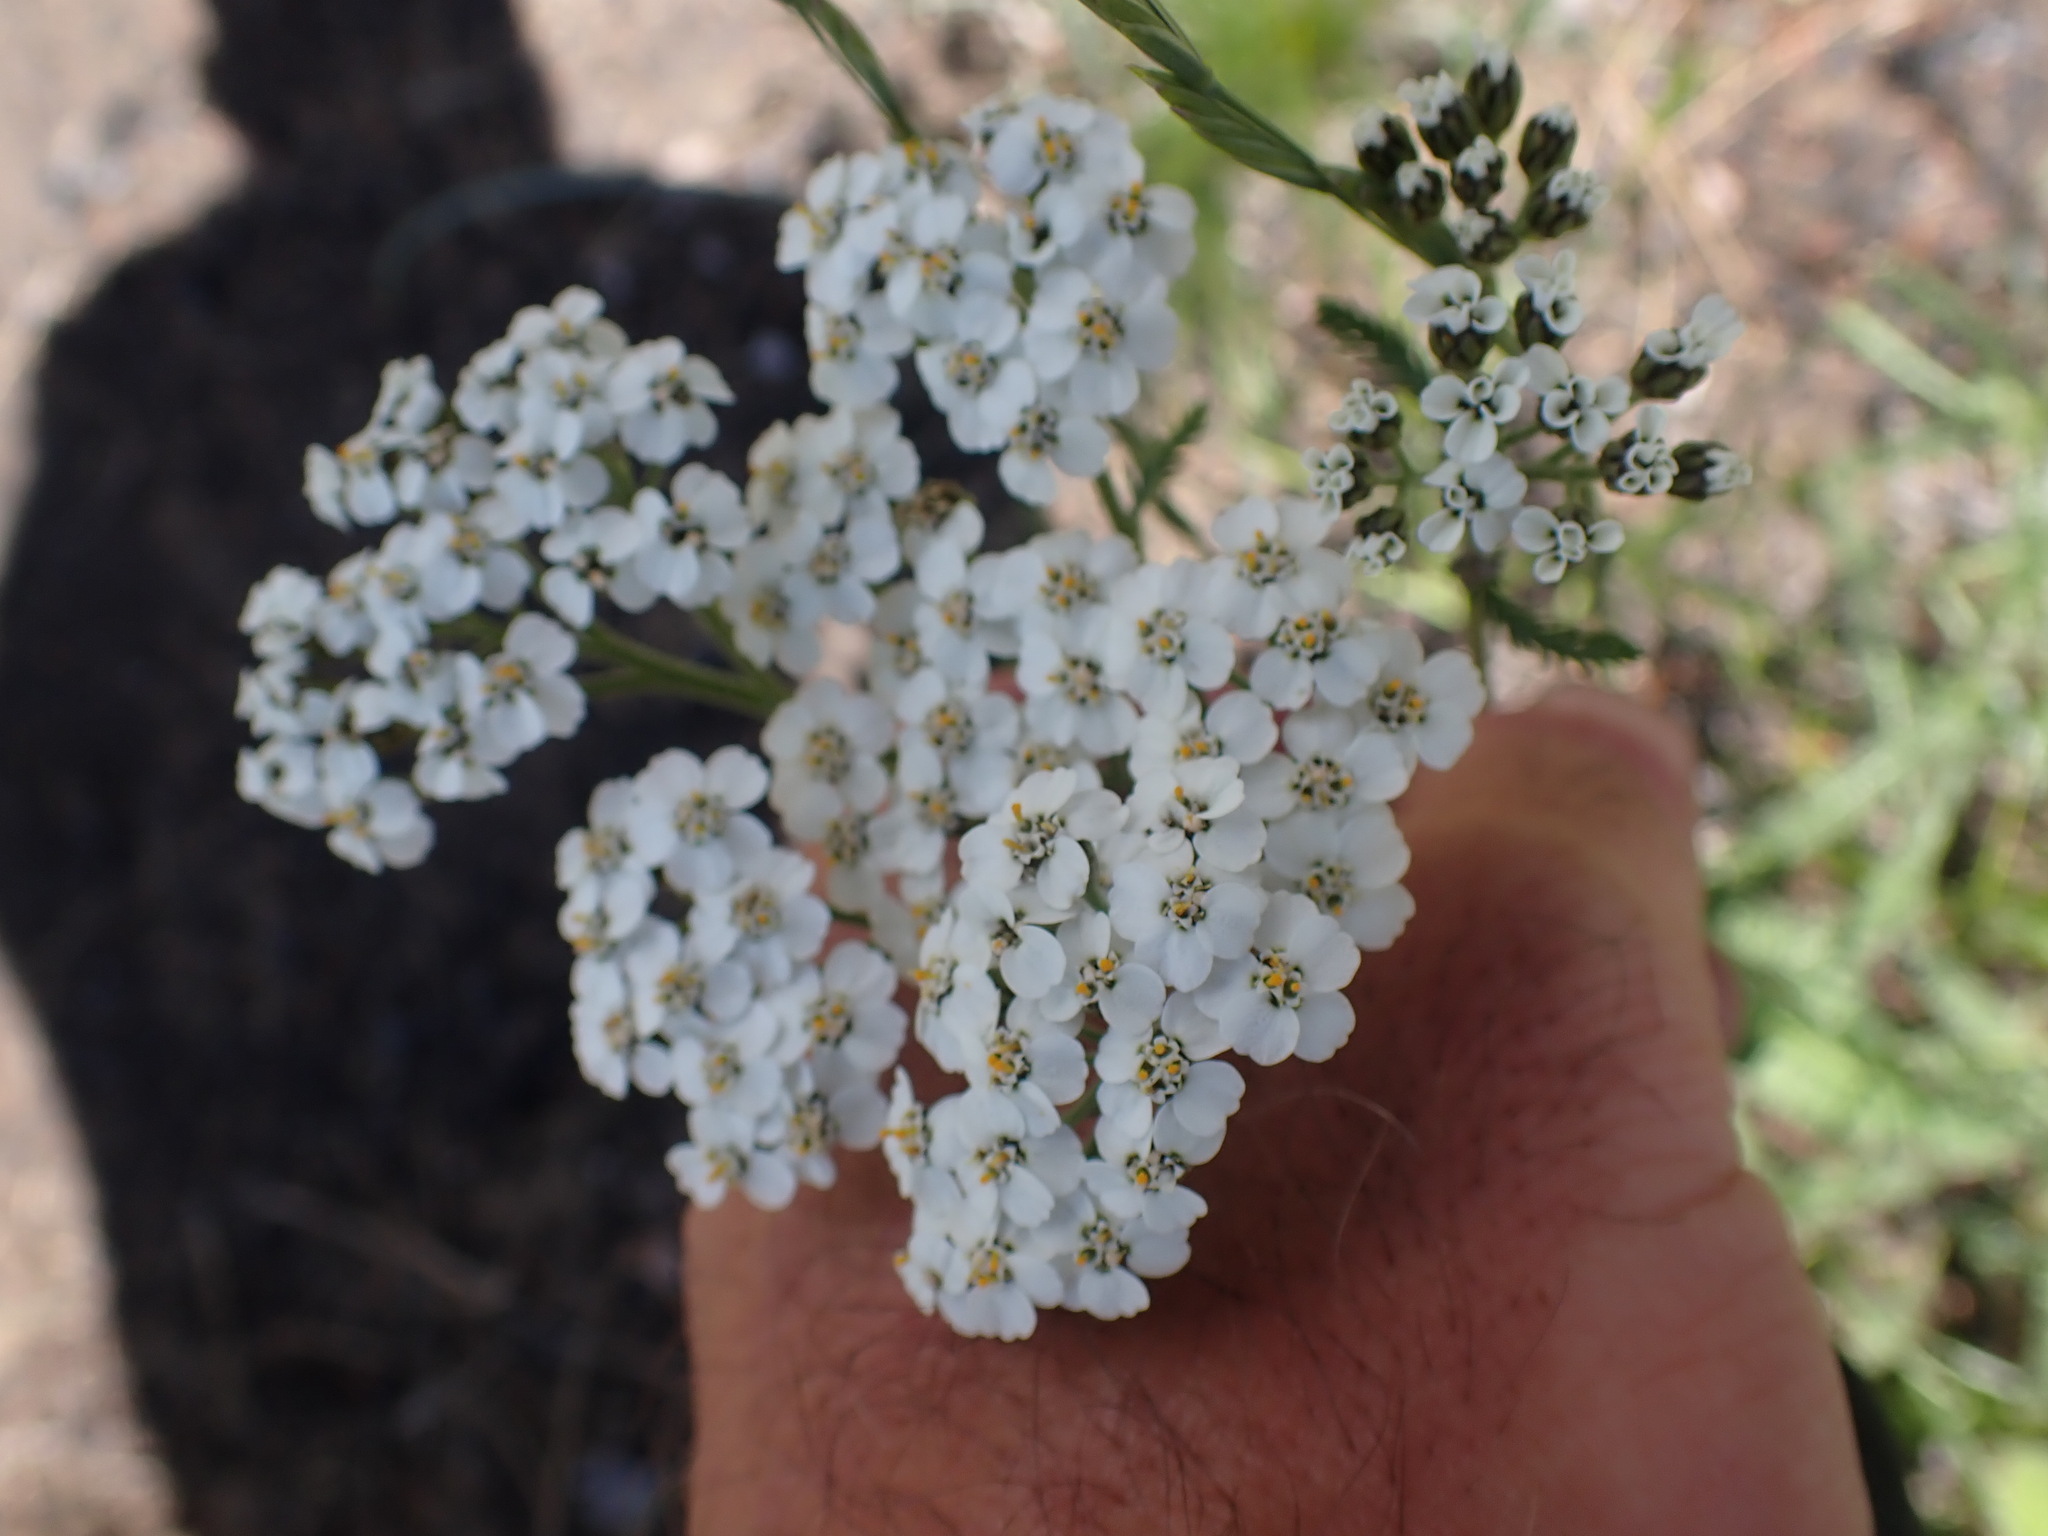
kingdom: Plantae
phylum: Tracheophyta
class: Magnoliopsida
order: Asterales
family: Asteraceae
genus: Achillea
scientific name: Achillea millefolium
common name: Yarrow
